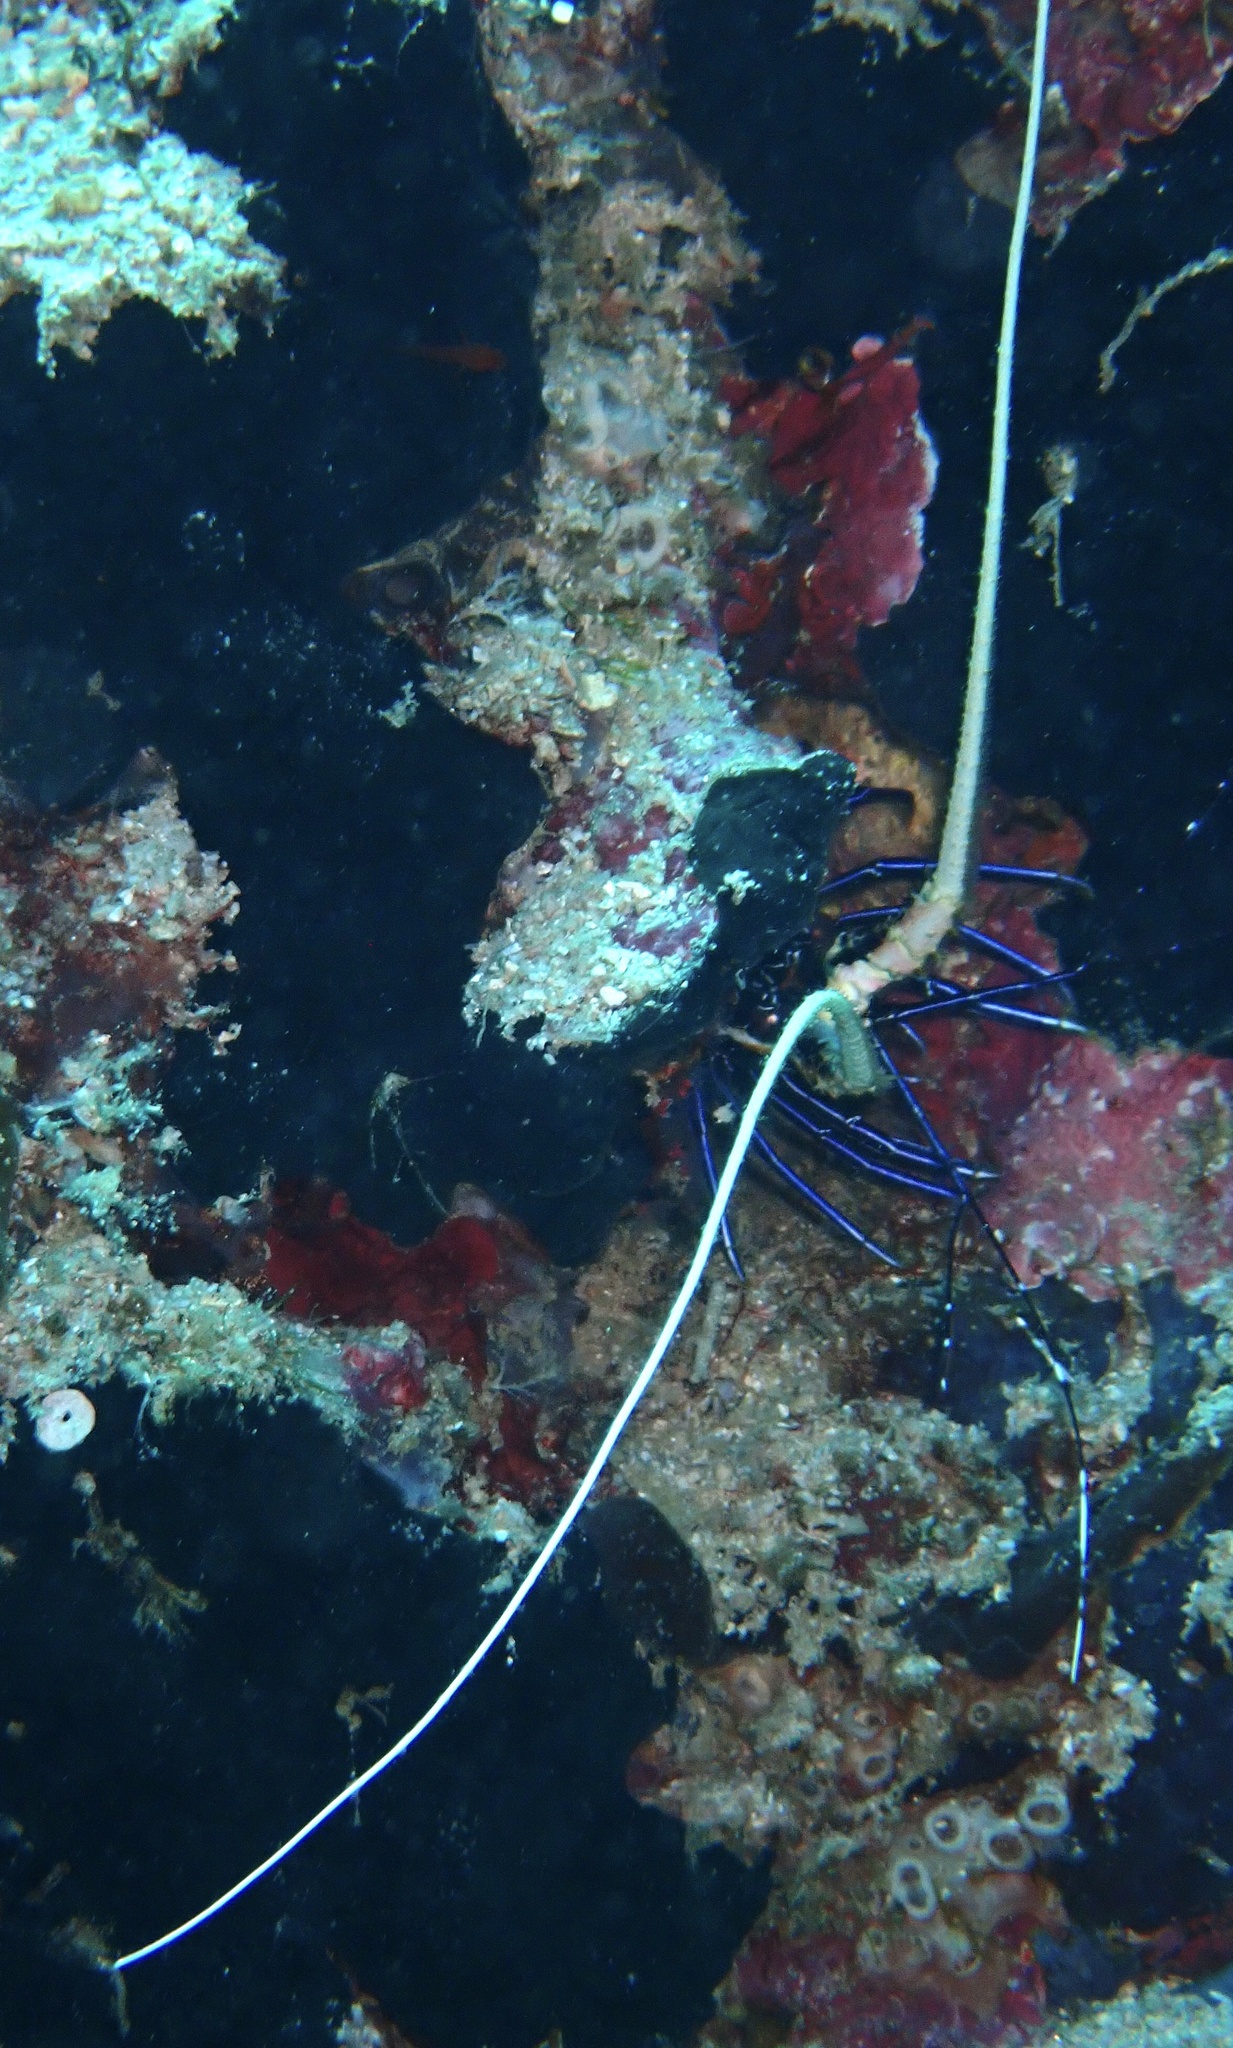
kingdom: Animalia
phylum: Arthropoda
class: Malacostraca
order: Decapoda
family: Palinuridae
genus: Panulirus
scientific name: Panulirus versicolor
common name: Painted spiny lobster
